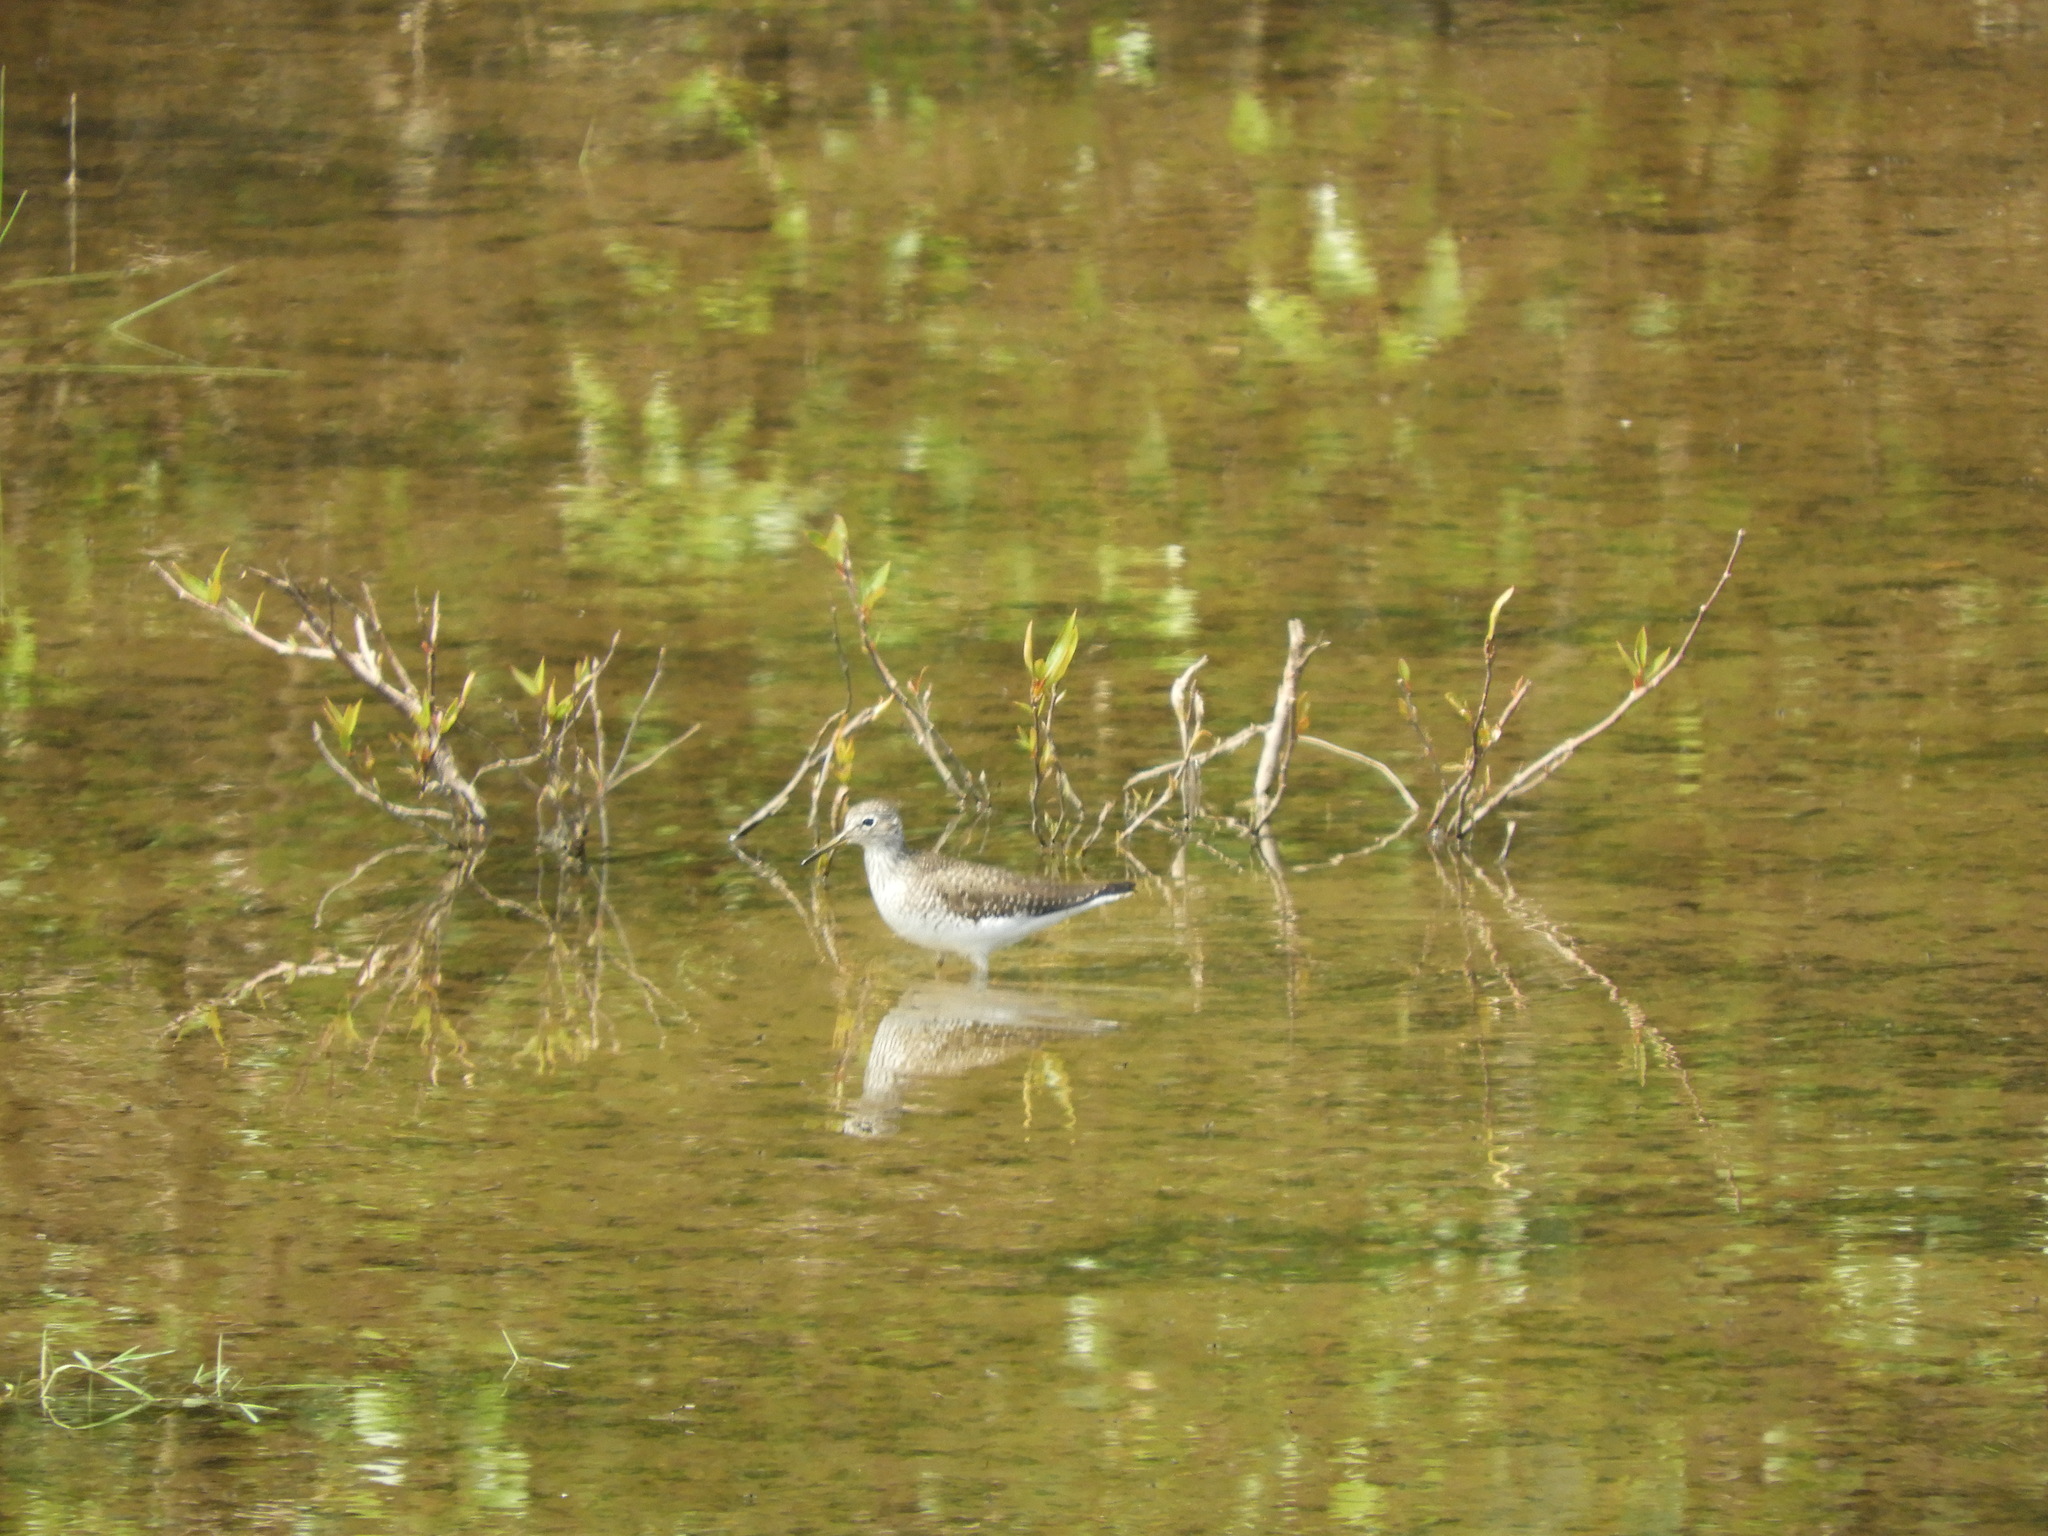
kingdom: Animalia
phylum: Chordata
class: Aves
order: Charadriiformes
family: Scolopacidae
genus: Tringa
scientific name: Tringa solitaria
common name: Solitary sandpiper
